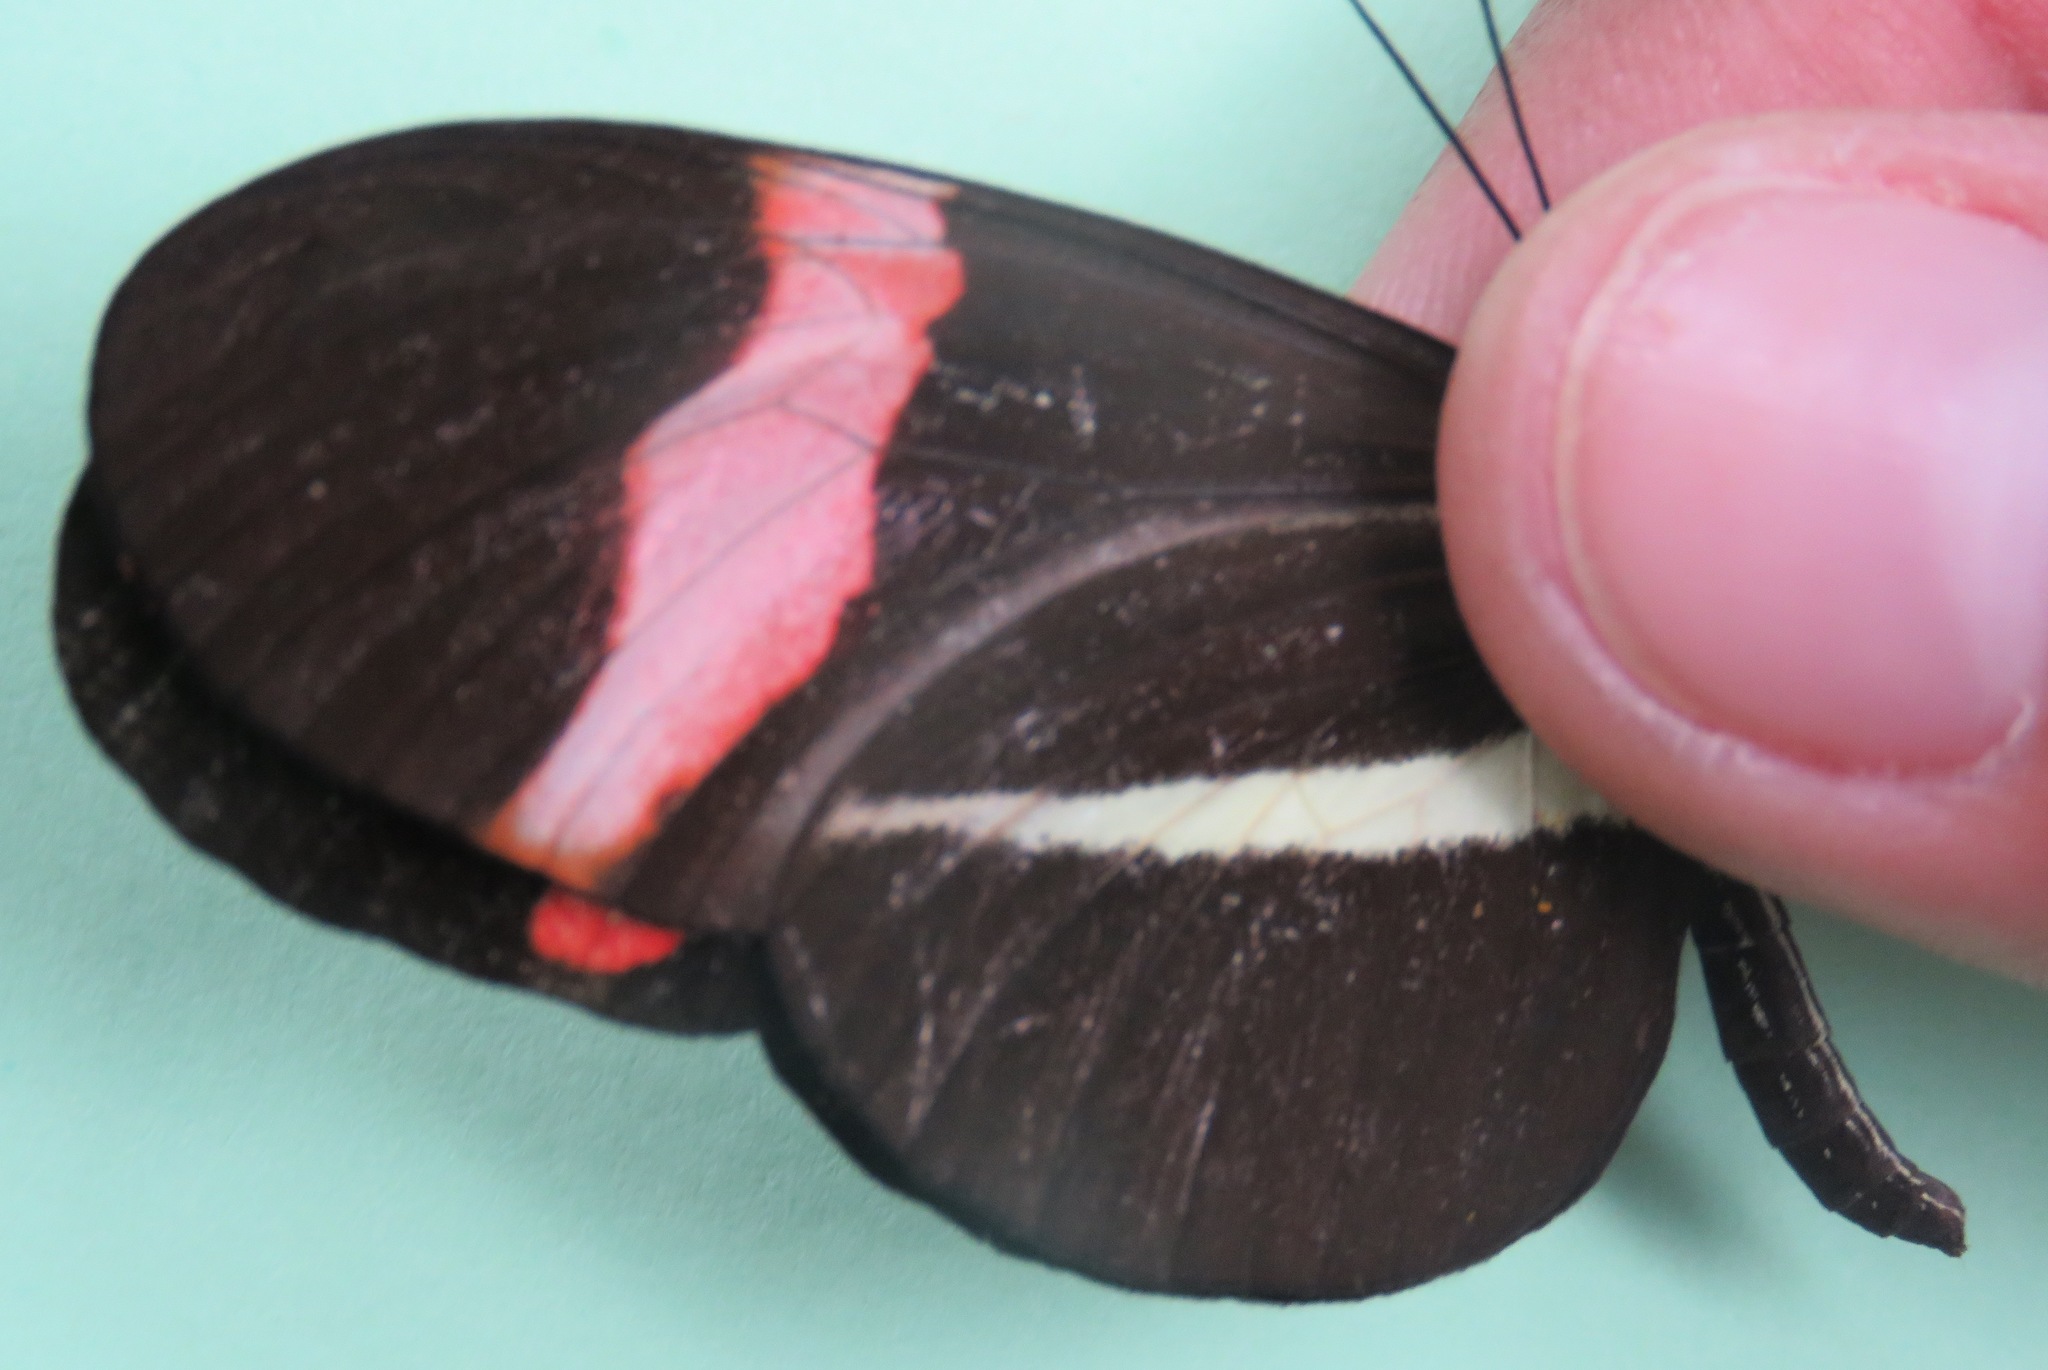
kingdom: Animalia
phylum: Arthropoda
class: Insecta
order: Lepidoptera
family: Nymphalidae
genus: Tirumala
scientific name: Tirumala petiverana
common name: Blue monarch
